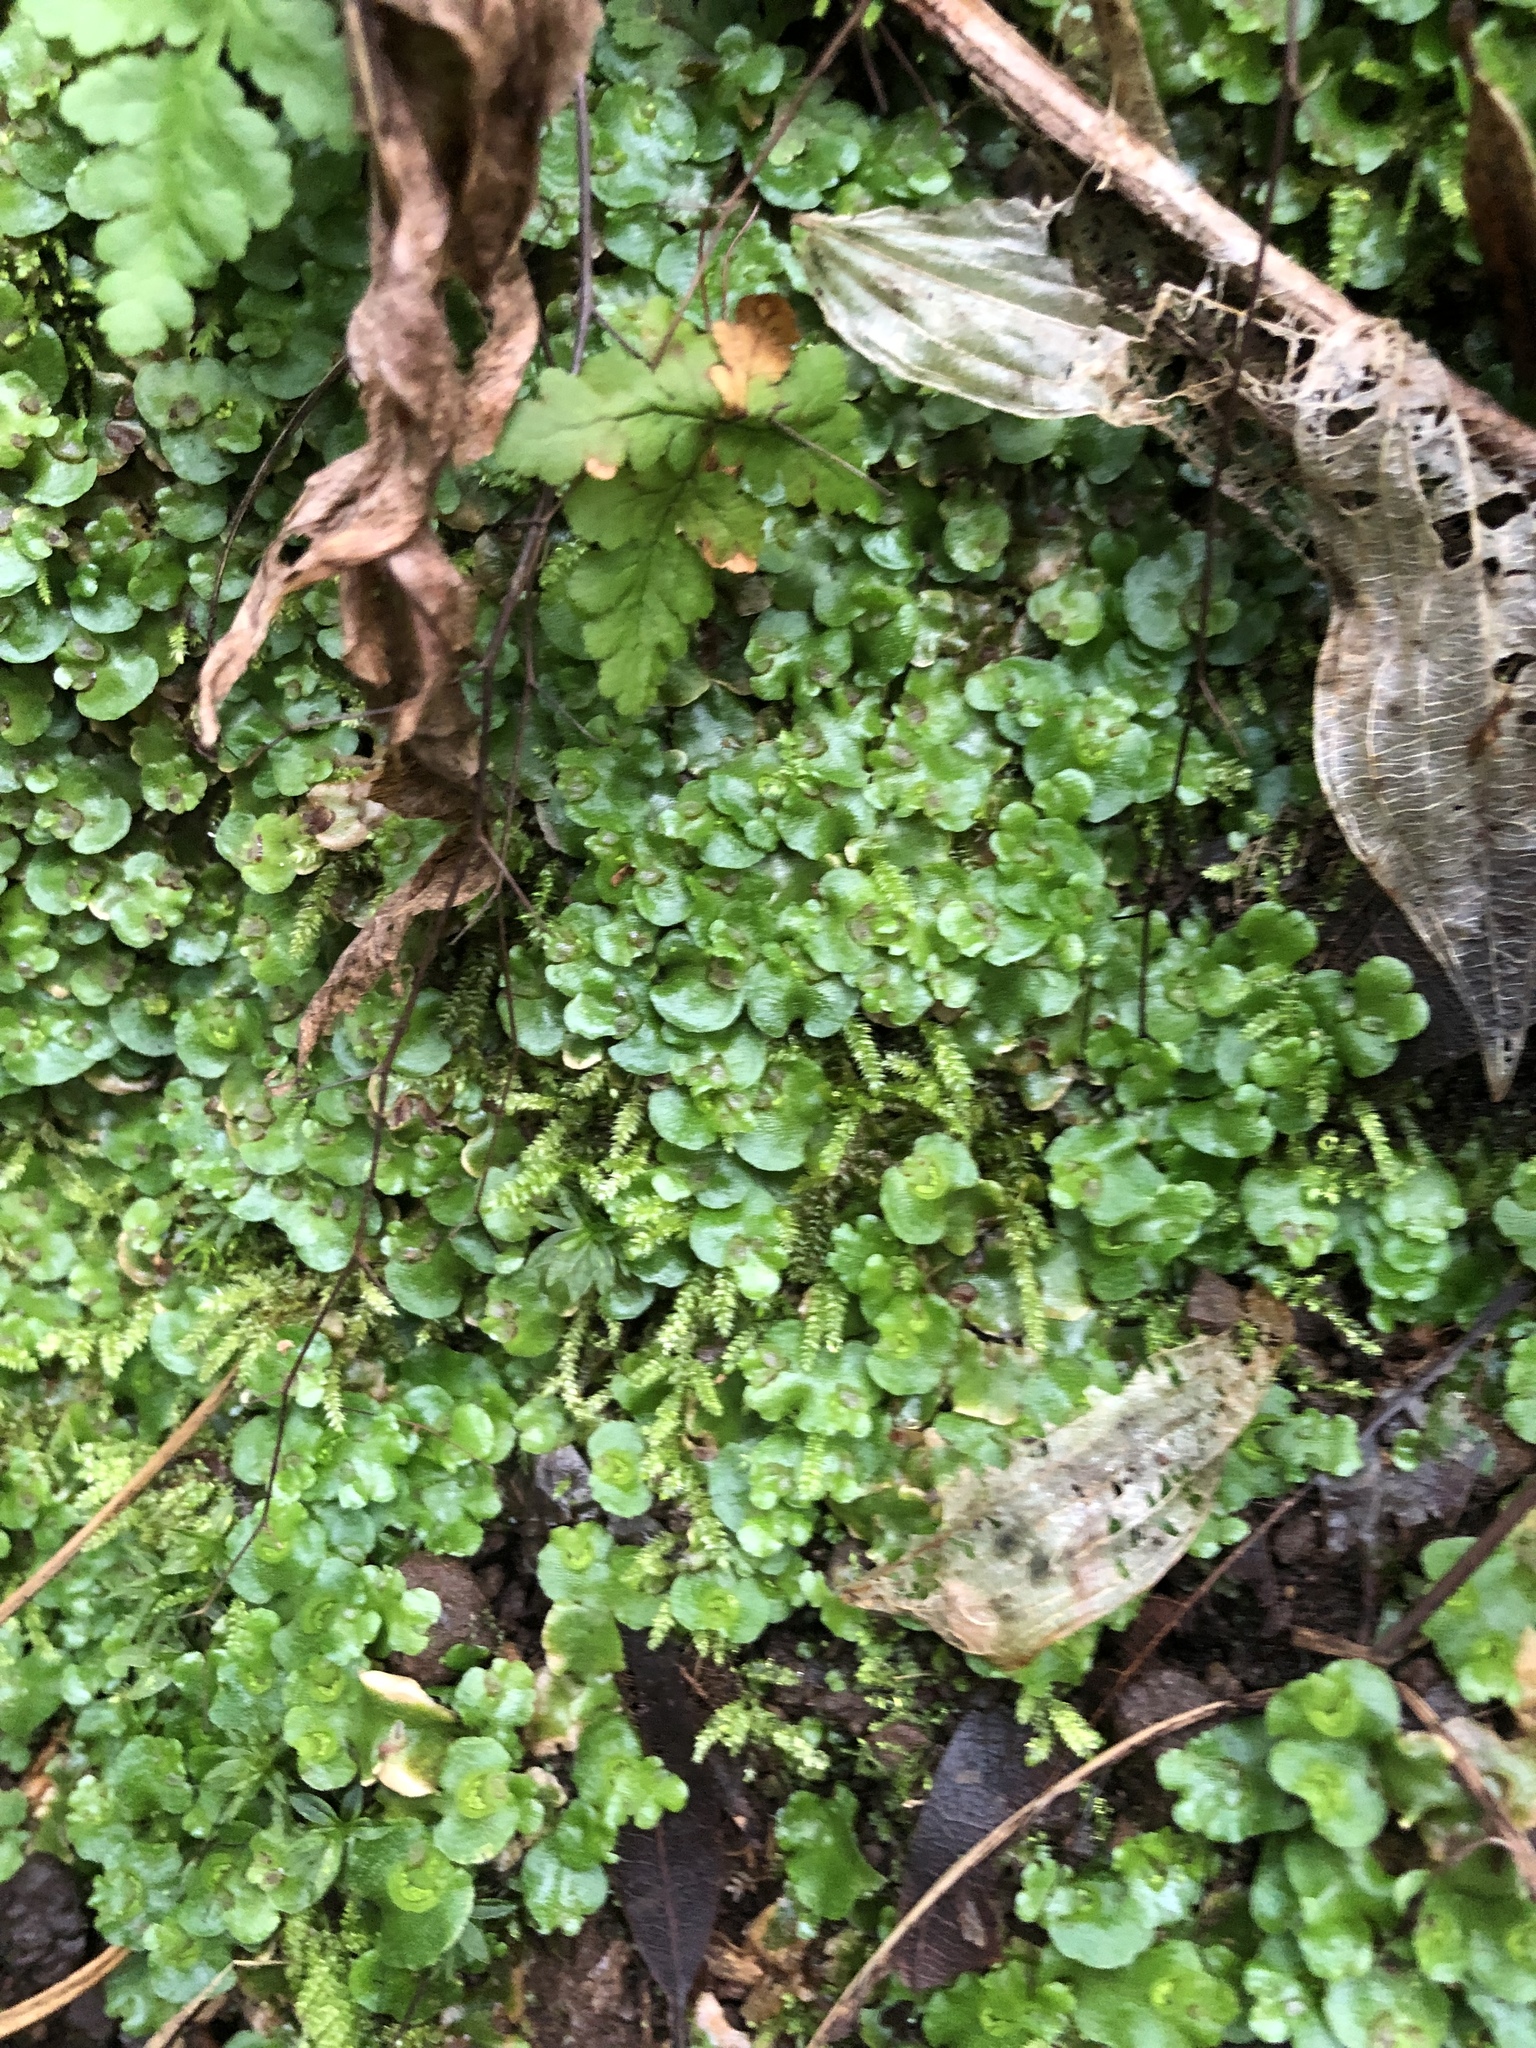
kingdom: Plantae
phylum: Marchantiophyta
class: Marchantiopsida
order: Lunulariales
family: Lunulariaceae
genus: Lunularia
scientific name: Lunularia cruciata
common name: Crescent-cup liverwort
